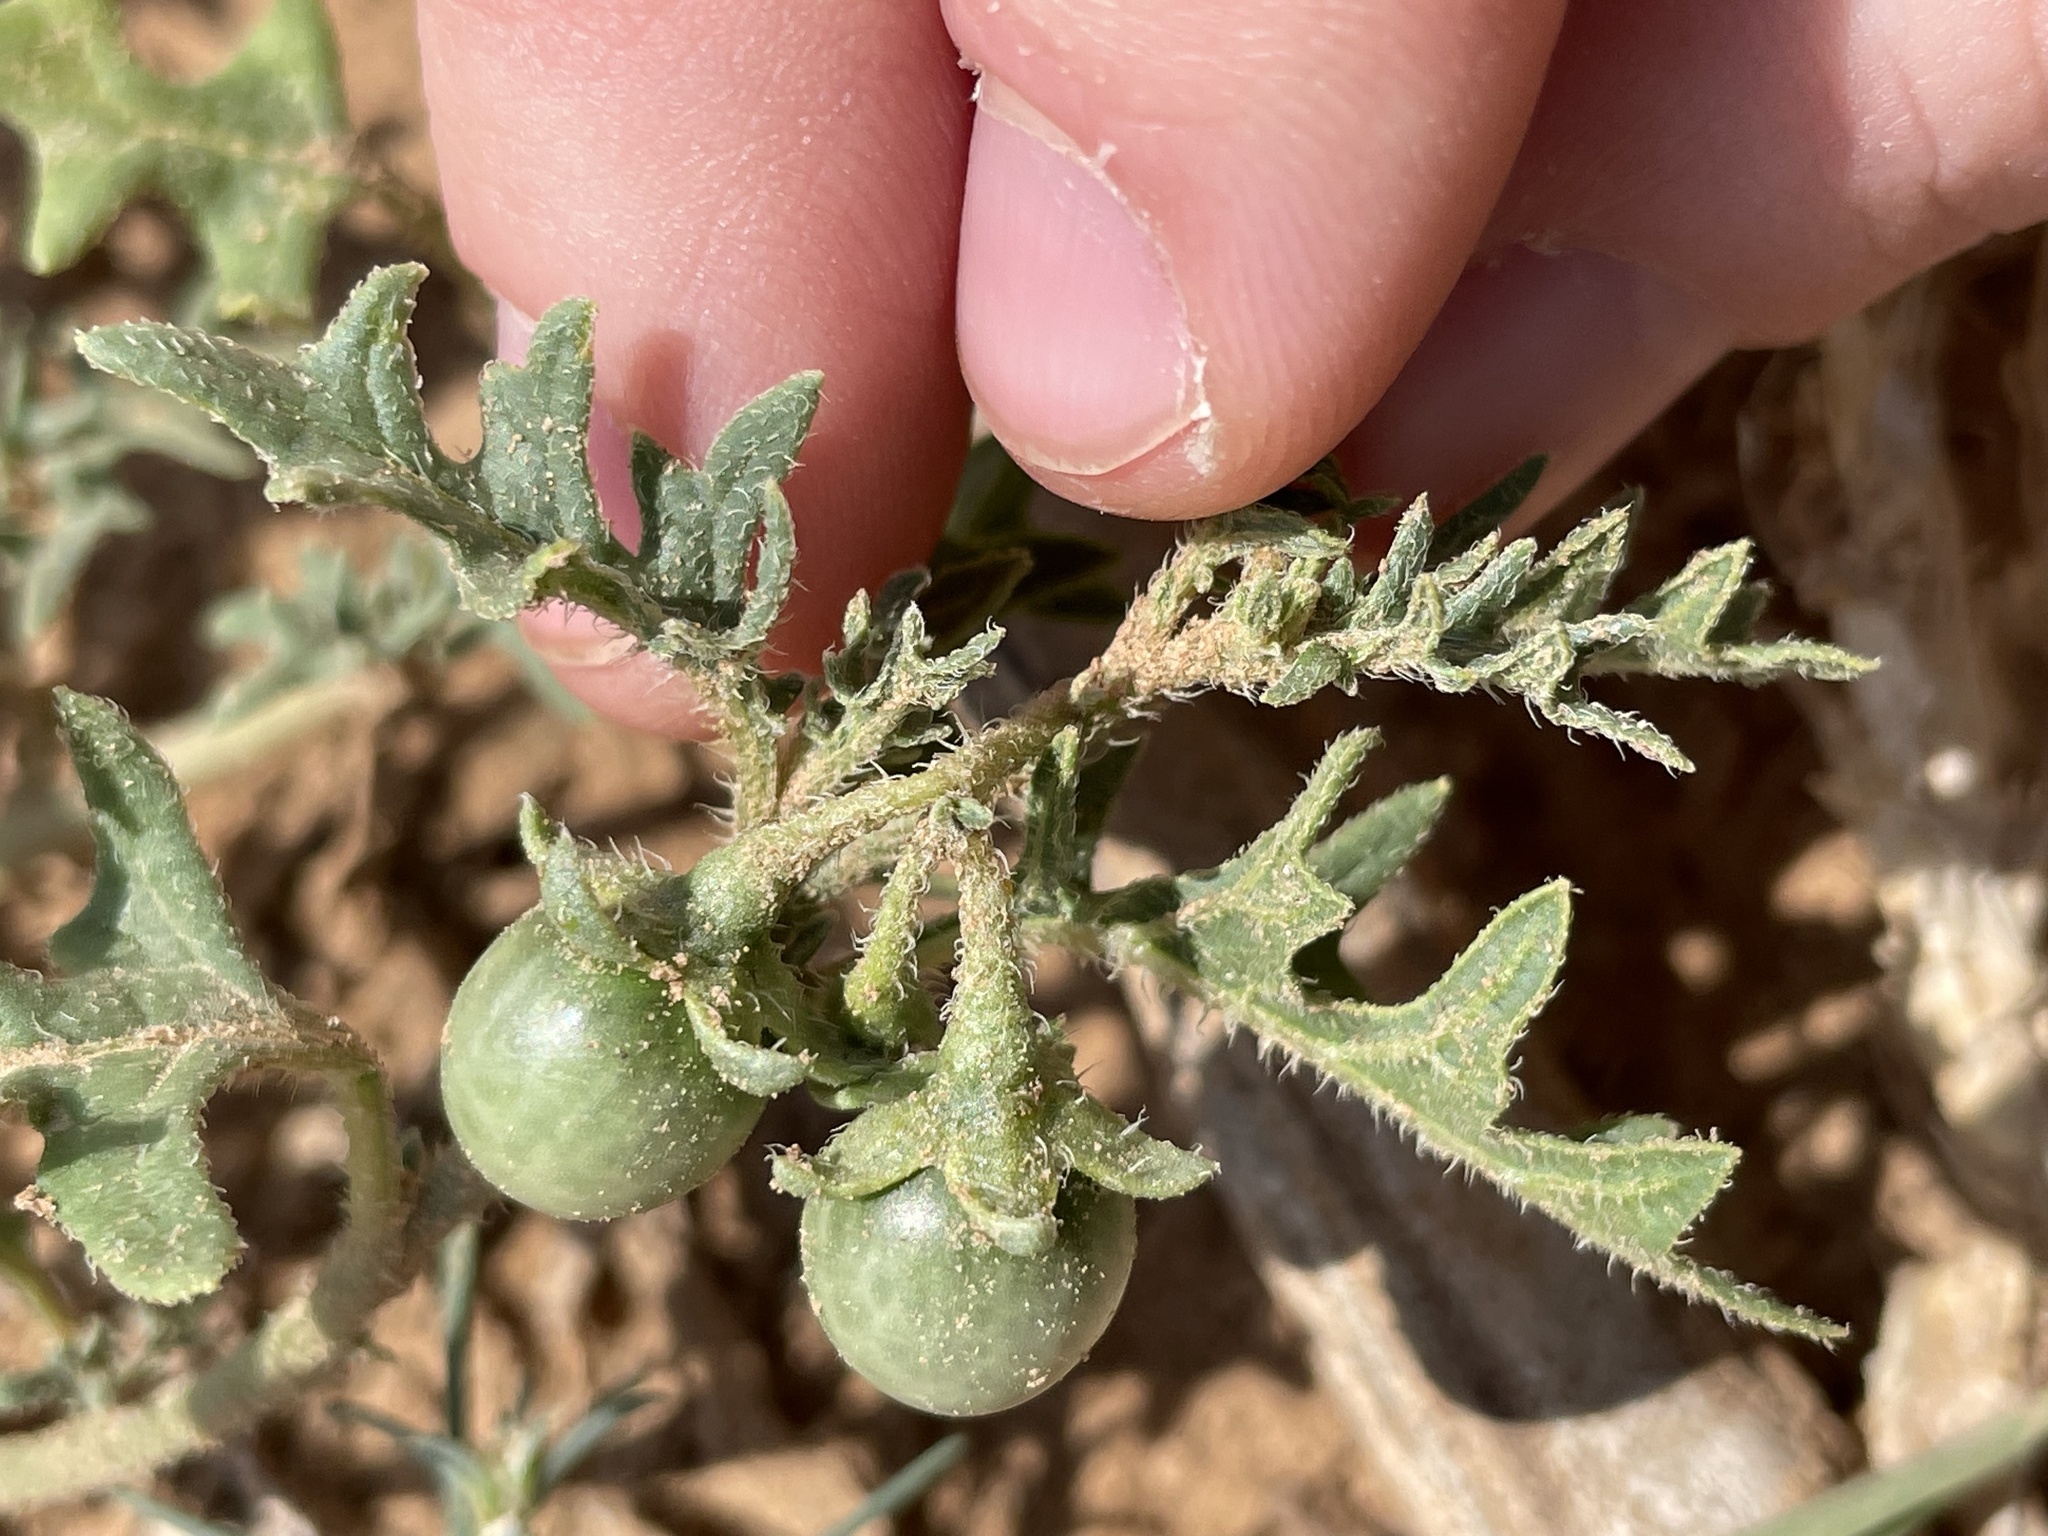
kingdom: Plantae
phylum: Tracheophyta
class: Magnoliopsida
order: Solanales
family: Solanaceae
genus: Solanum
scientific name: Solanum triflorum
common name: Small nightshade
